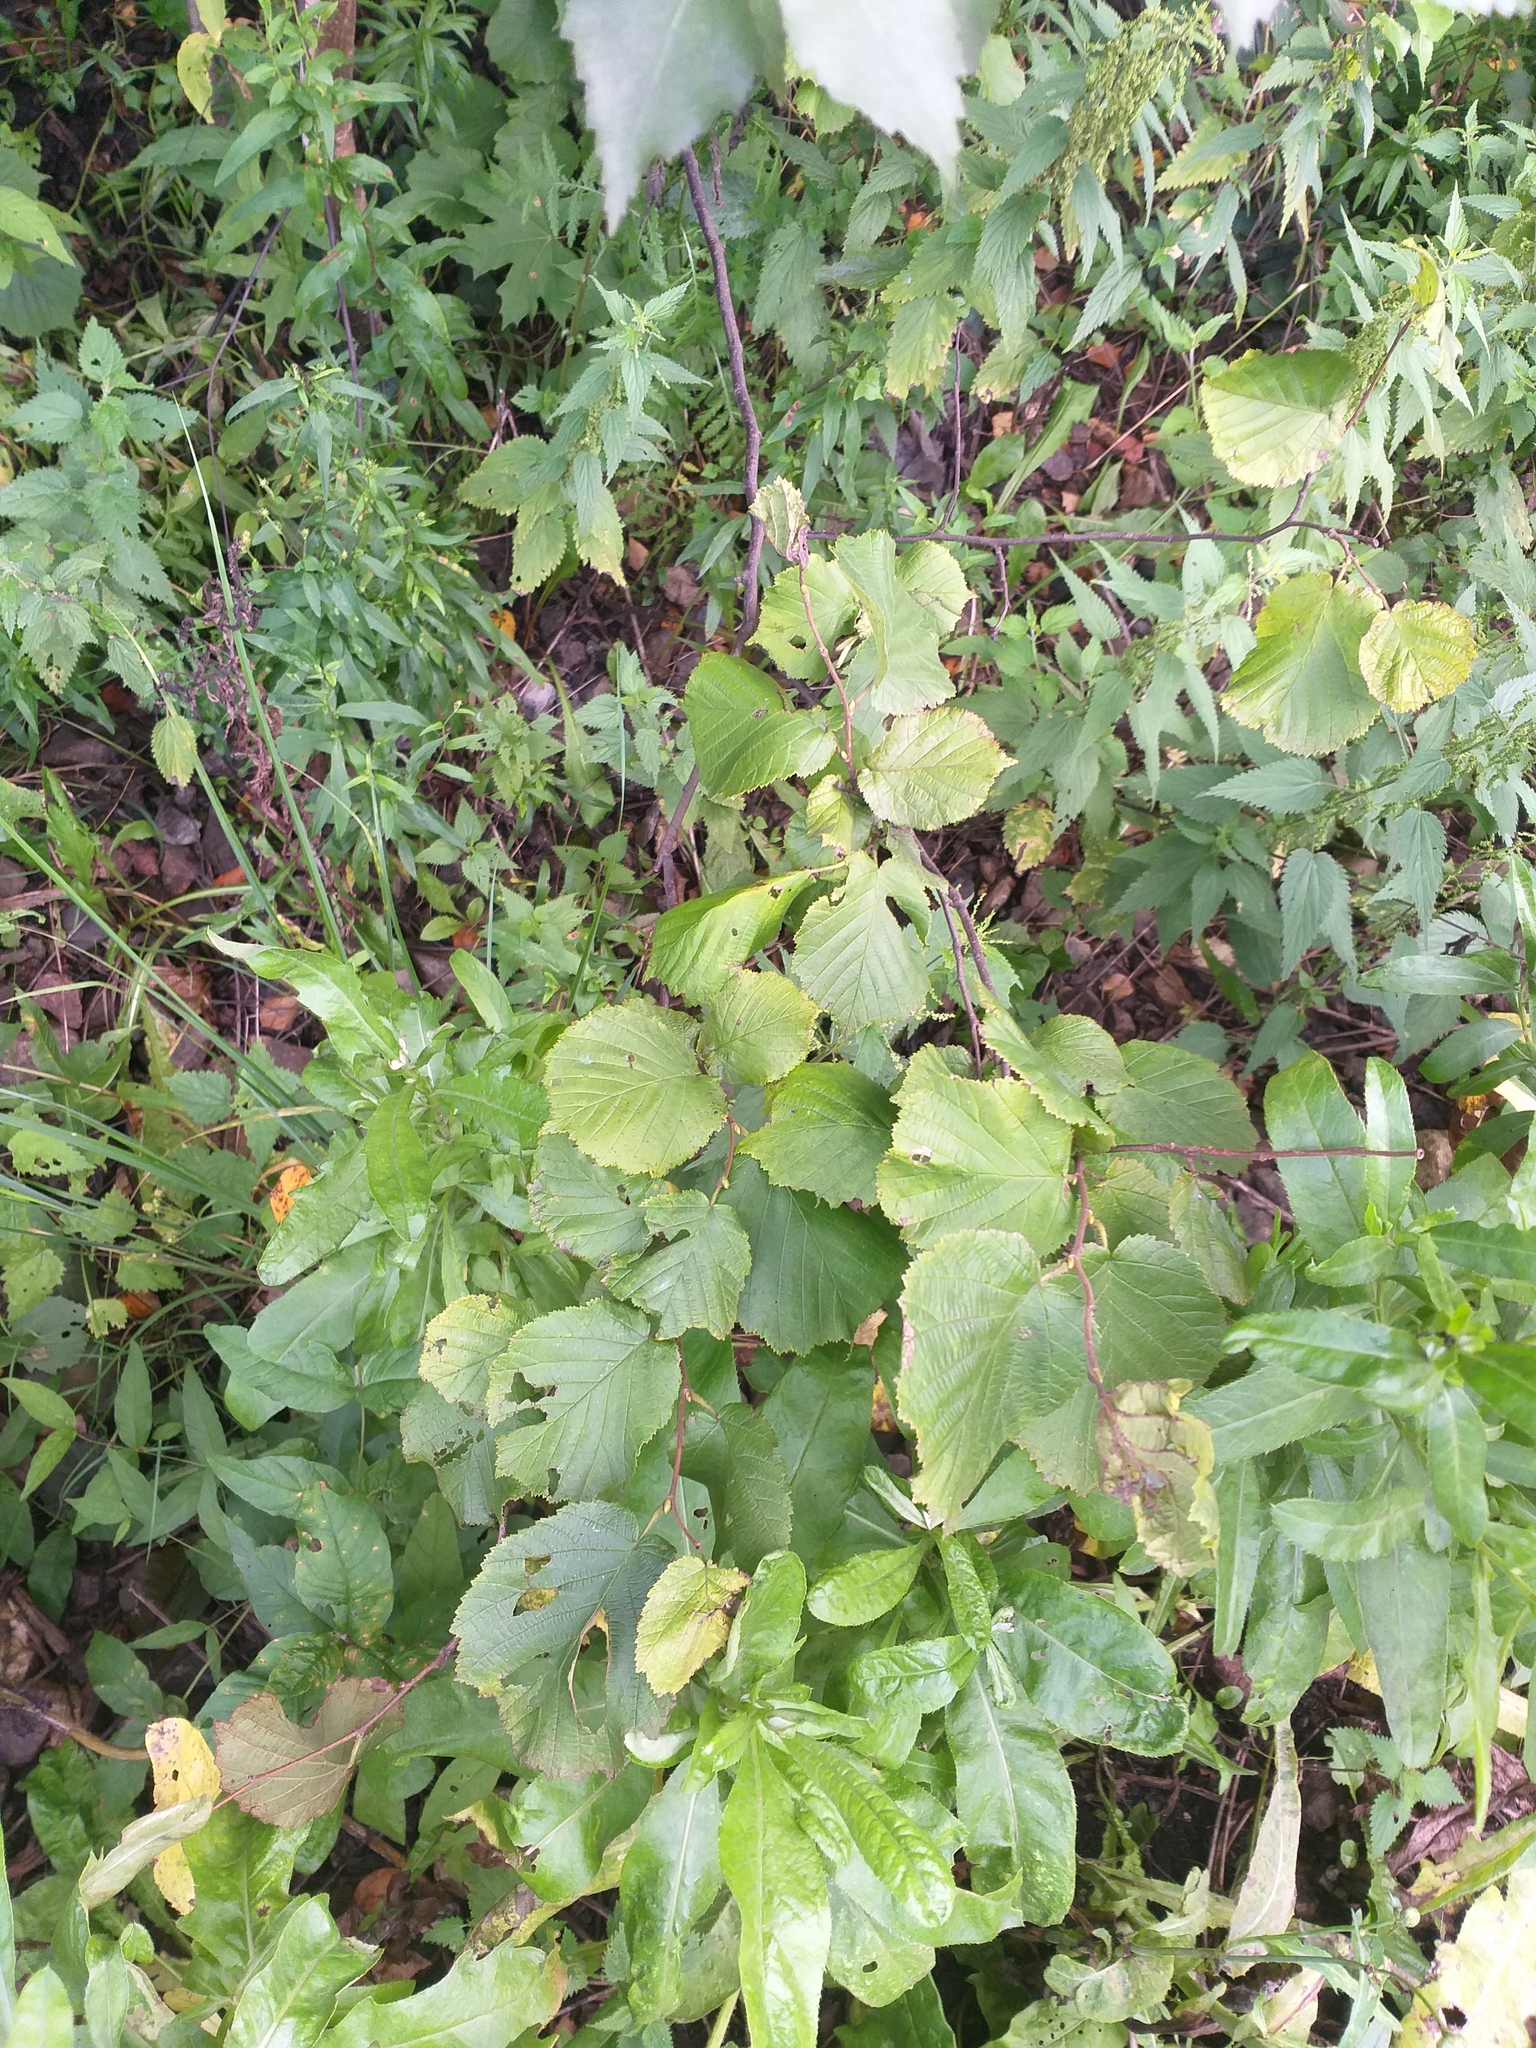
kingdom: Plantae
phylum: Tracheophyta
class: Magnoliopsida
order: Fagales
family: Betulaceae
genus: Corylus
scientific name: Corylus avellana
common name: European hazel
